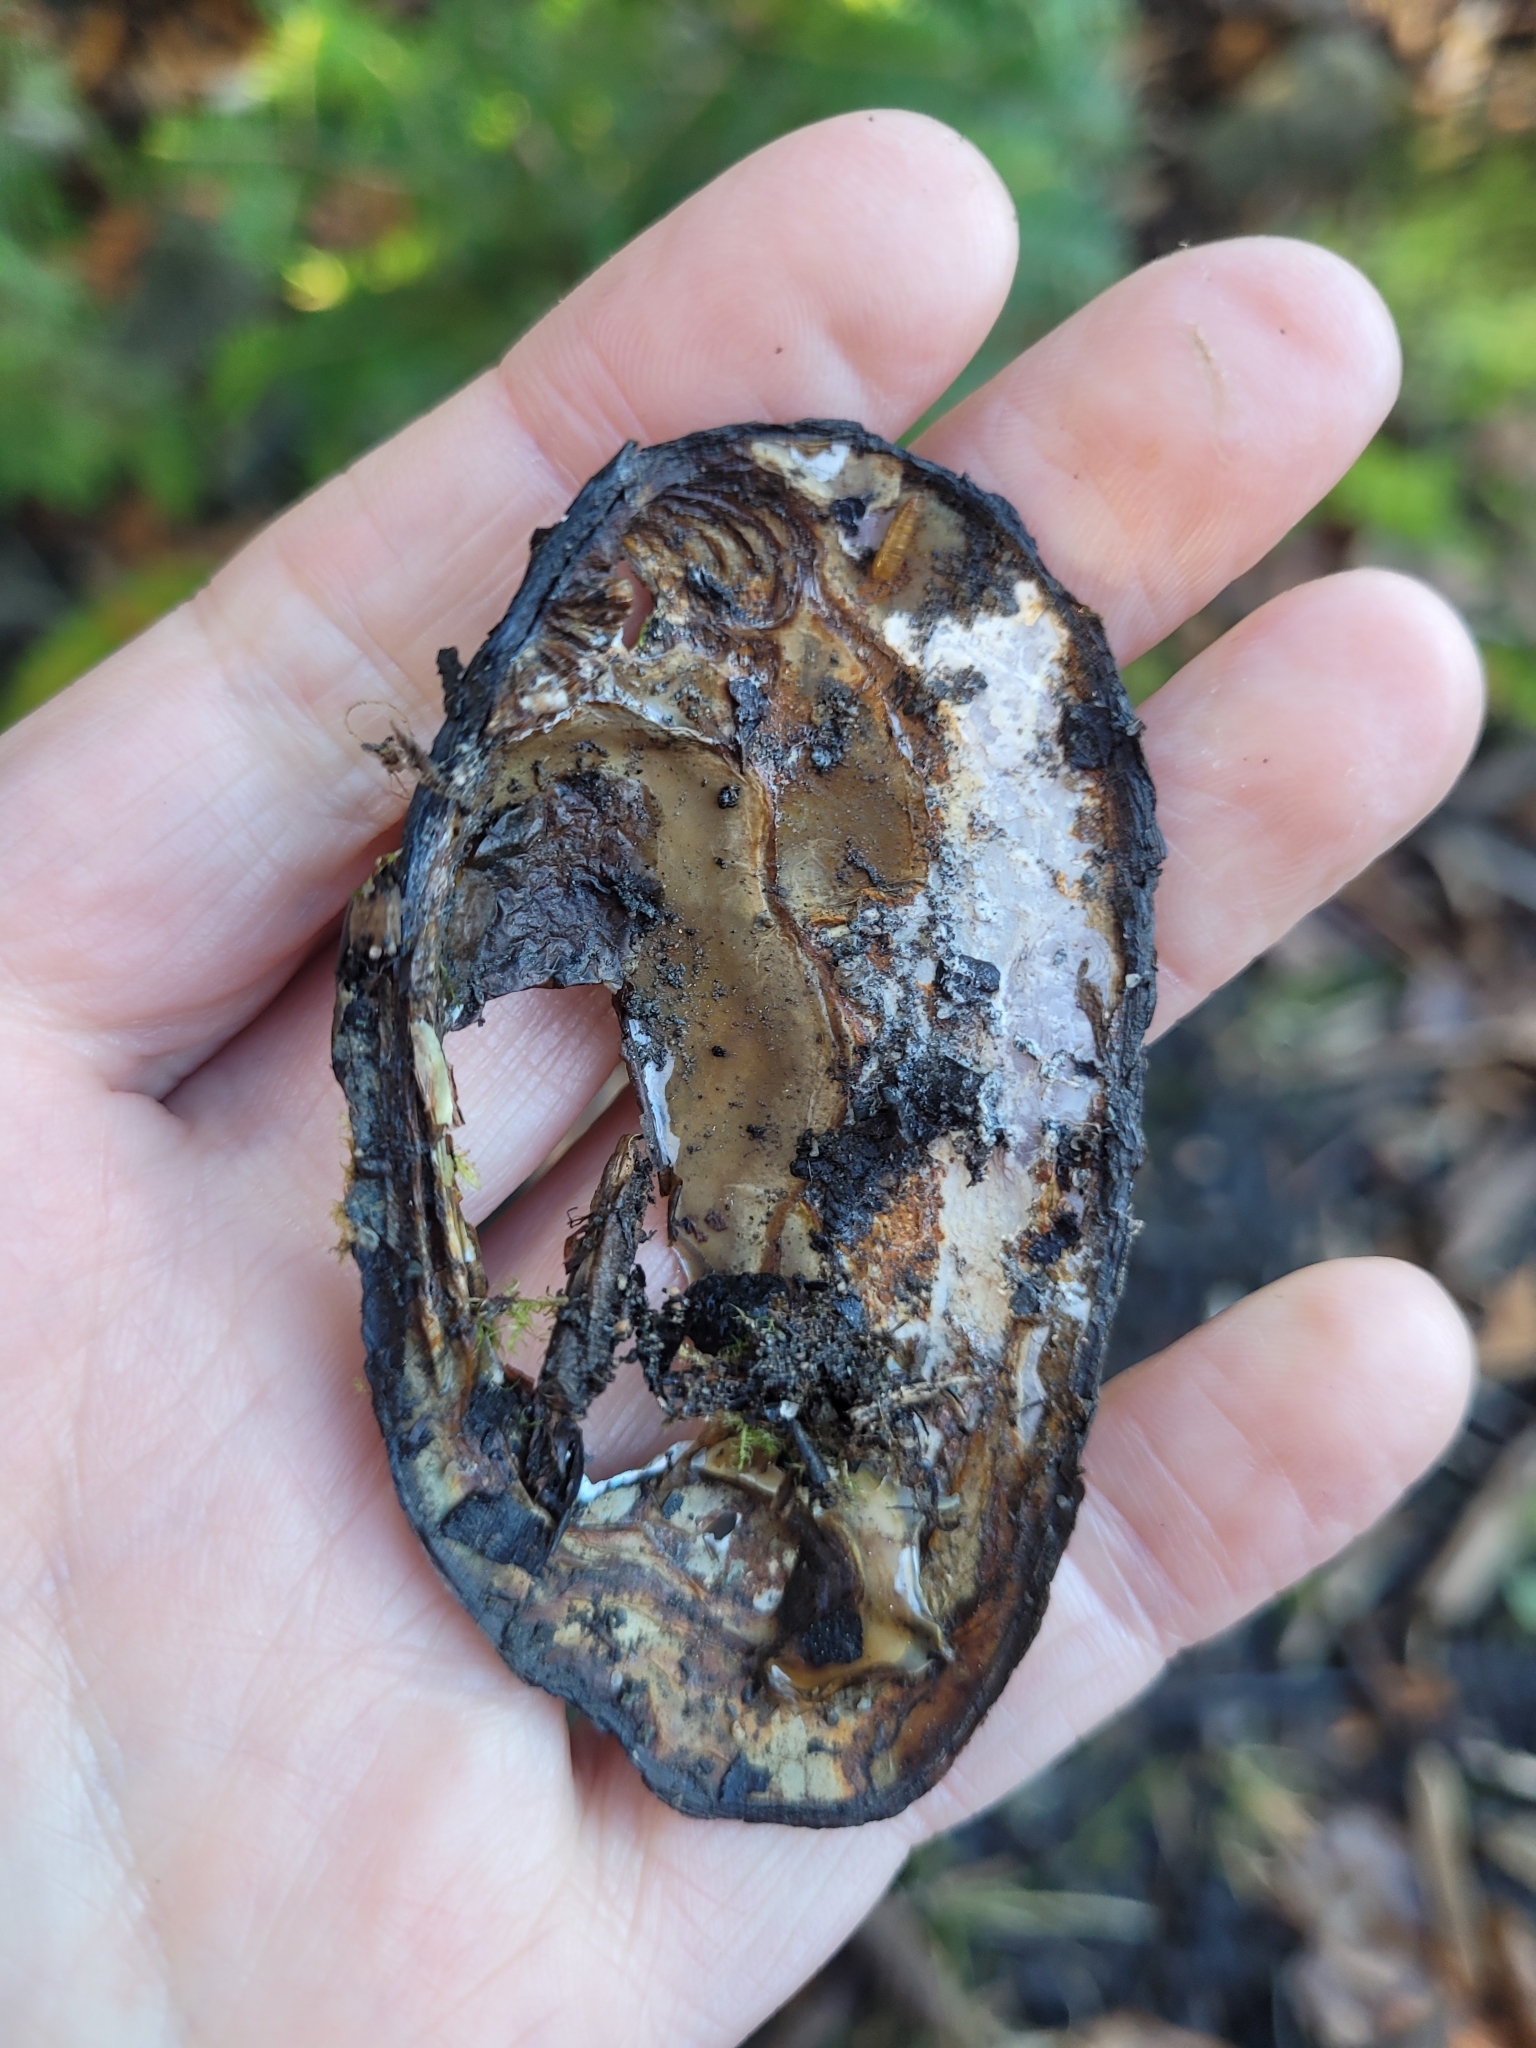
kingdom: Animalia
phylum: Mollusca
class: Bivalvia
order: Unionida
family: Unionidae
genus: Elliptio
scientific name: Elliptio complanata
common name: Eastern elliptio
